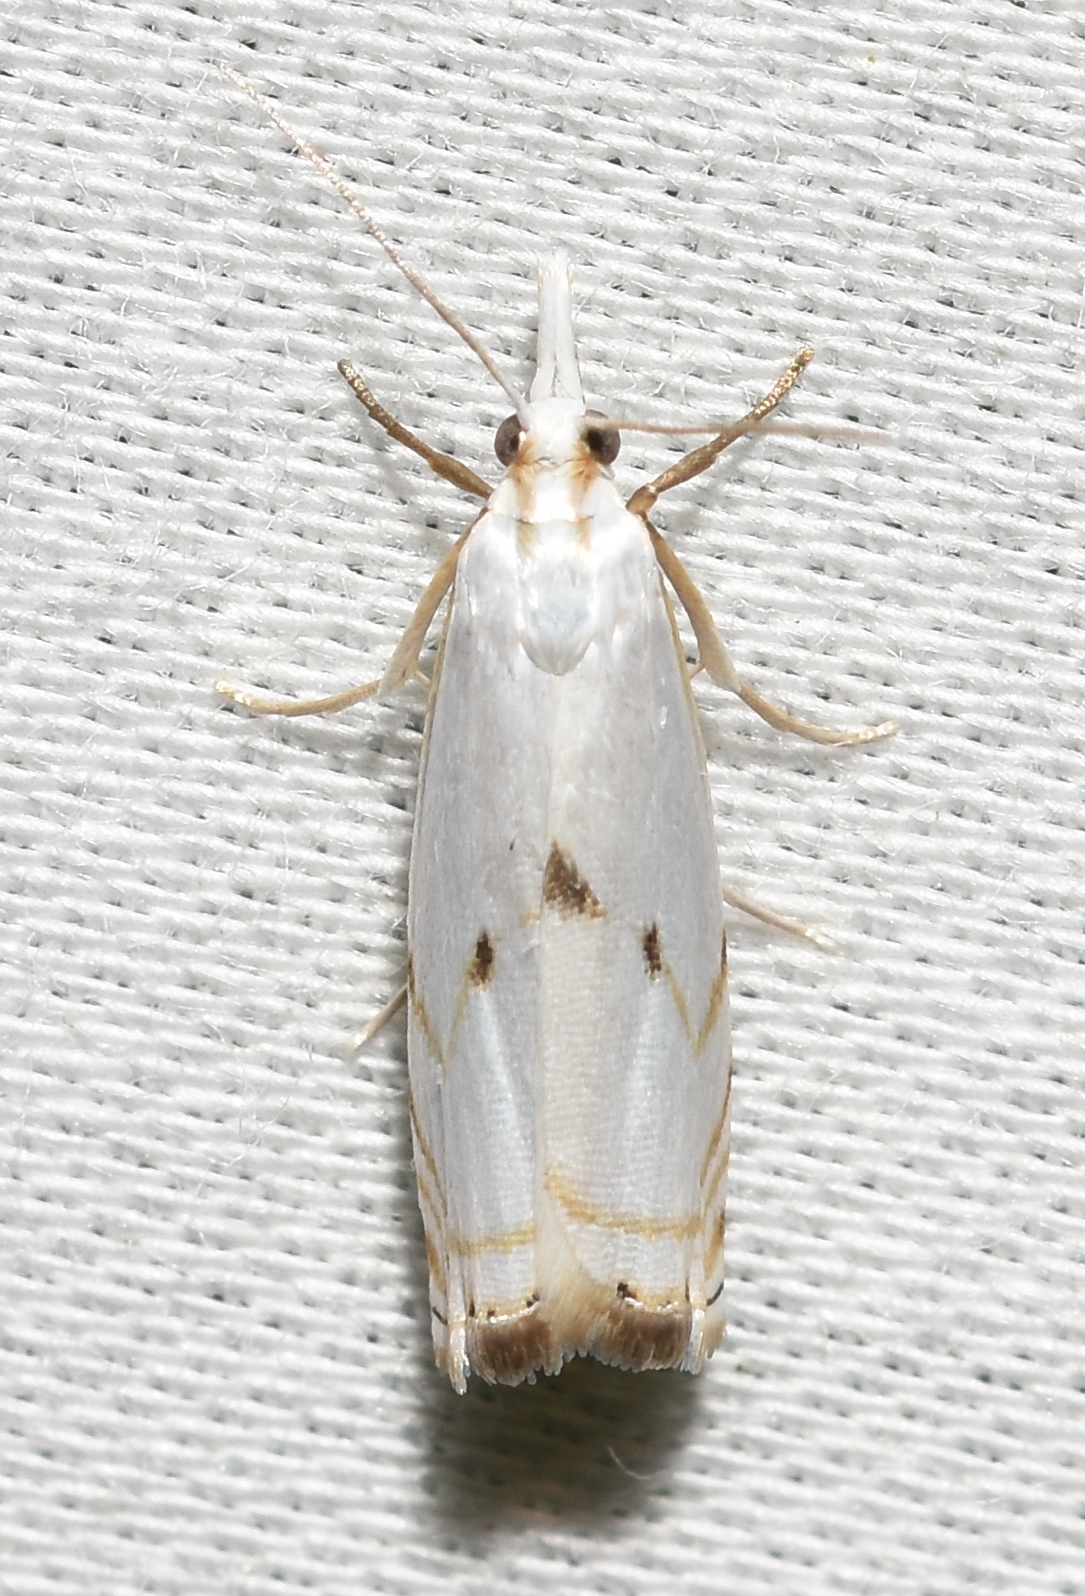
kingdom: Animalia
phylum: Arthropoda
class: Insecta
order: Lepidoptera
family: Crambidae
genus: Microcrambus
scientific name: Microcrambus biguttellus
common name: Gold-stripe grass-veneer moth
